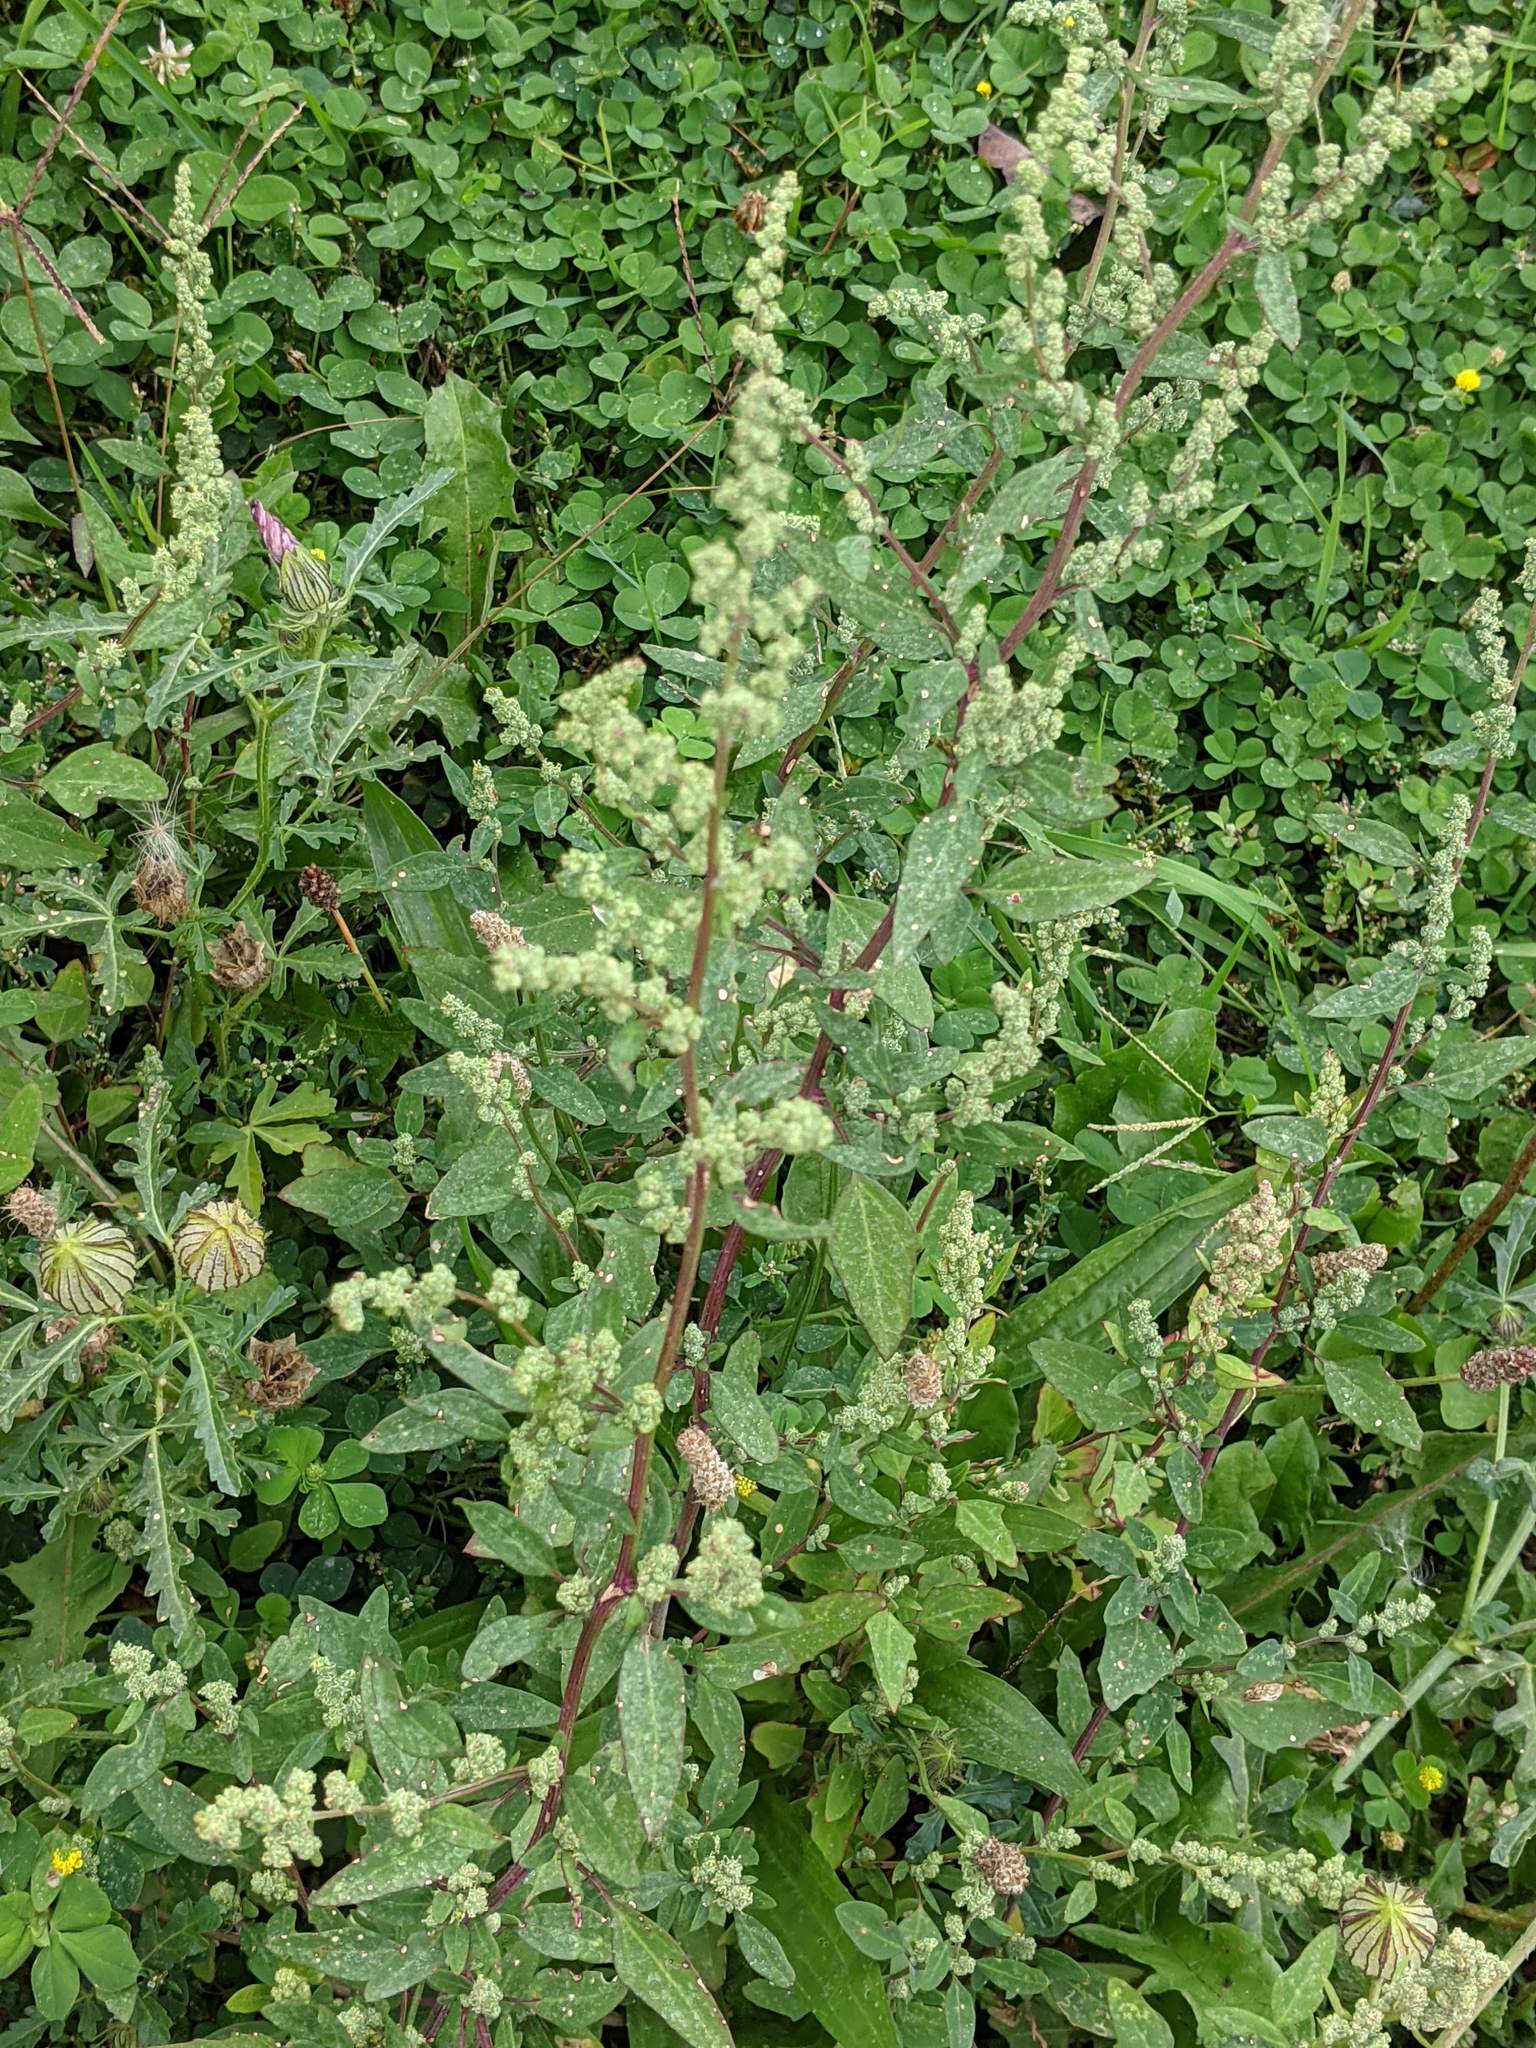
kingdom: Plantae
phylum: Tracheophyta
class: Magnoliopsida
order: Caryophyllales
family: Amaranthaceae
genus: Chenopodium
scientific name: Chenopodium album
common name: Fat-hen
